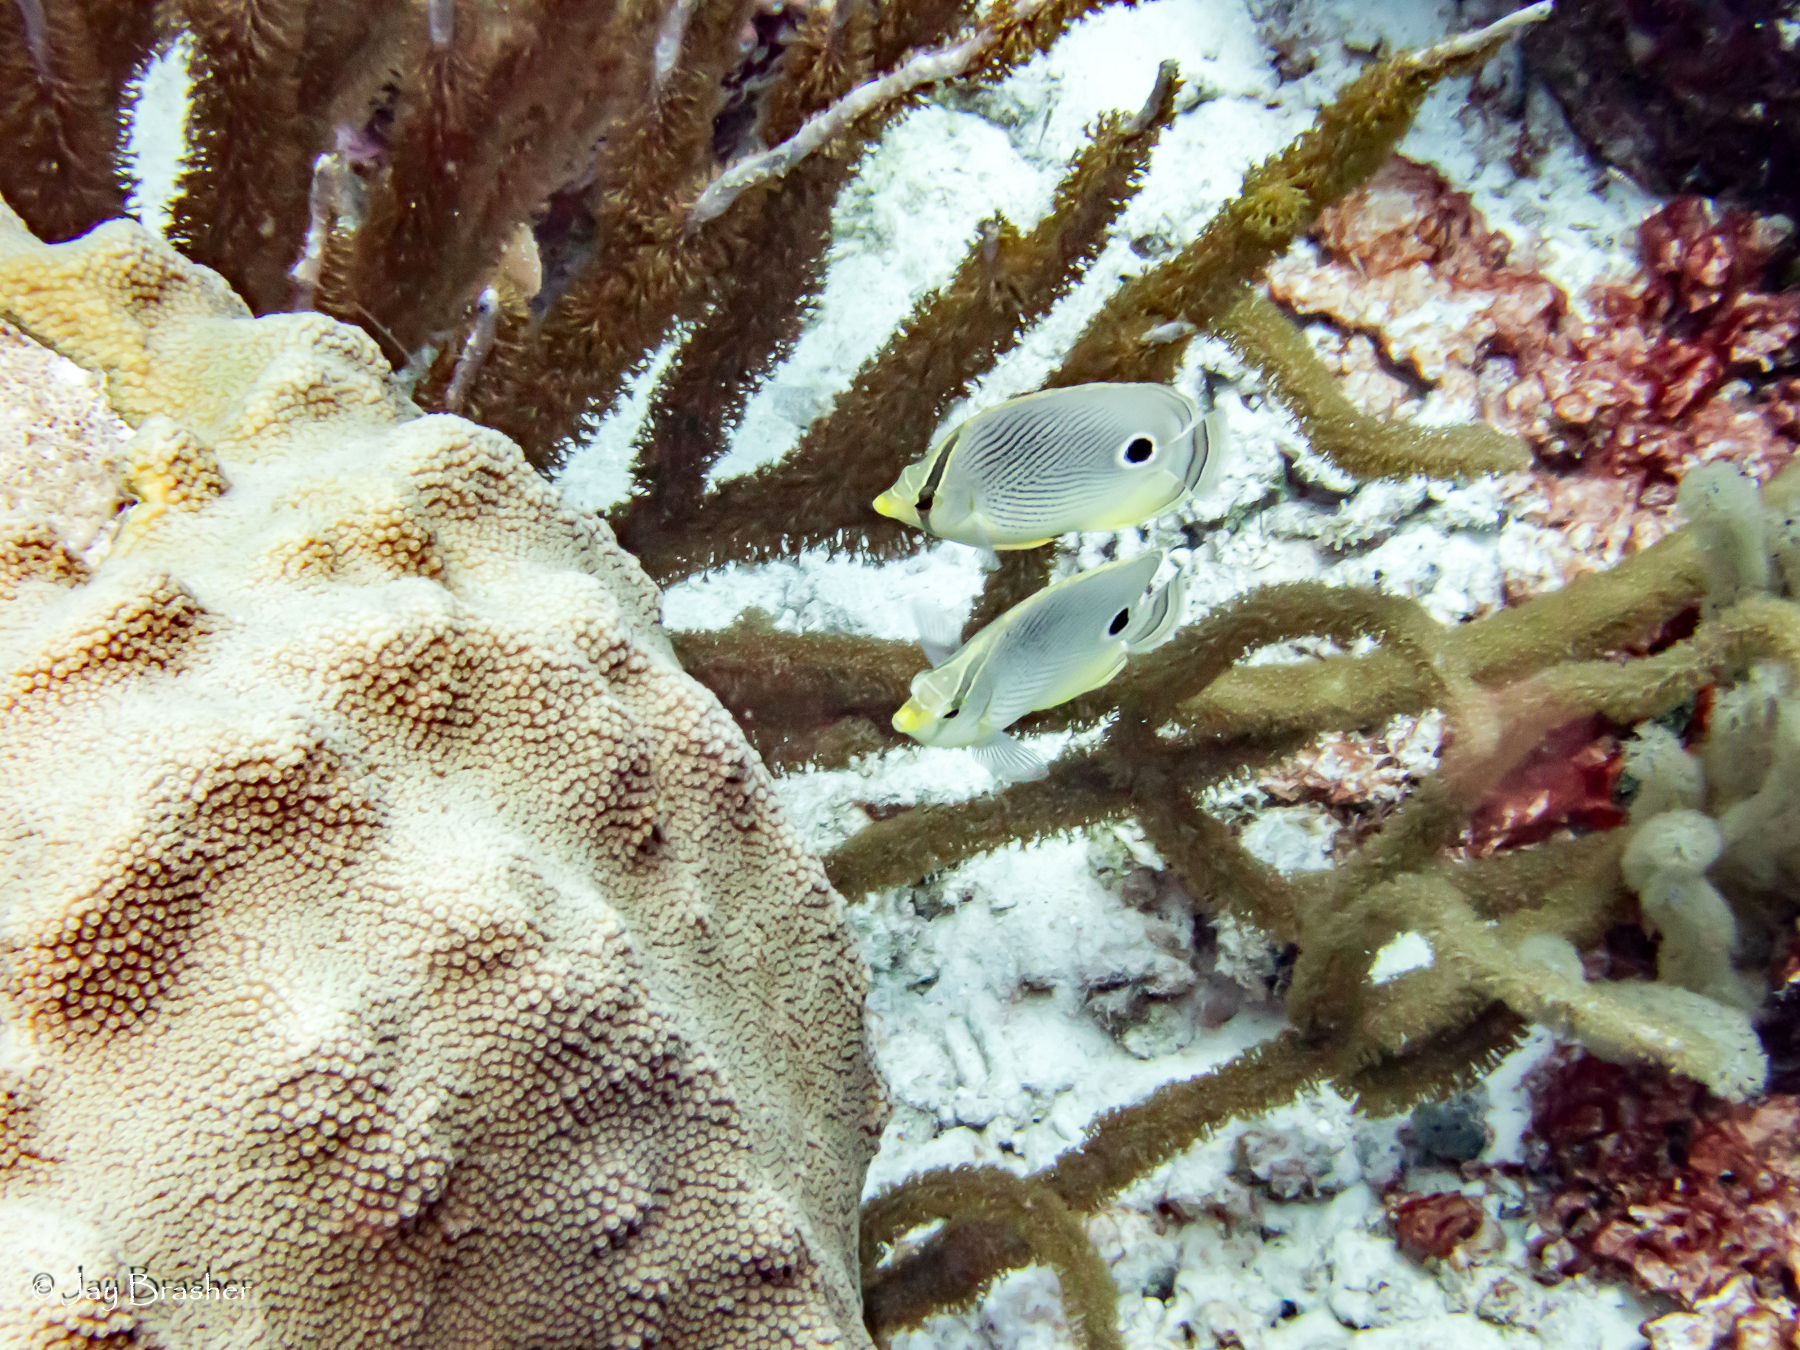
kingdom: Animalia
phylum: Chordata
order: Perciformes
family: Chaetodontidae
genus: Chaetodon
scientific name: Chaetodon capistratus
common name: Kete
